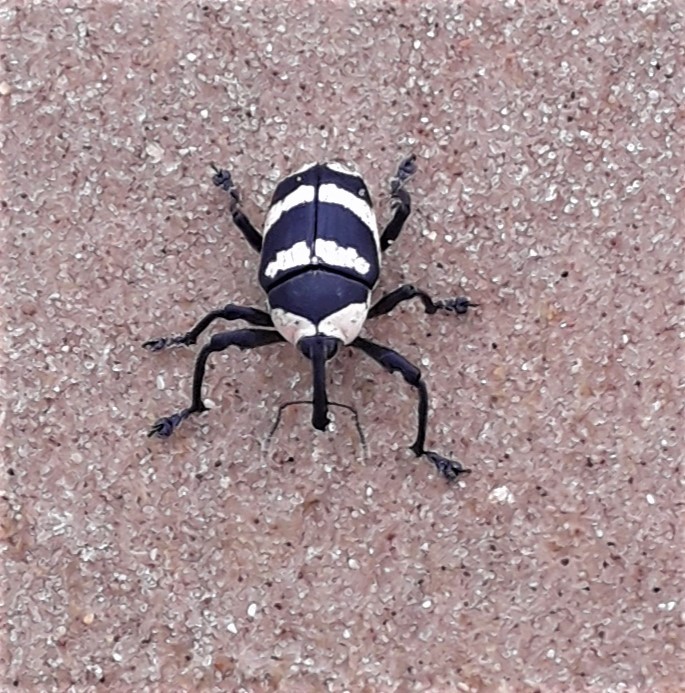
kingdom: Animalia
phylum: Arthropoda
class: Insecta
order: Coleoptera
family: Curculionidae
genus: Cholus
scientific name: Cholus annulatus
